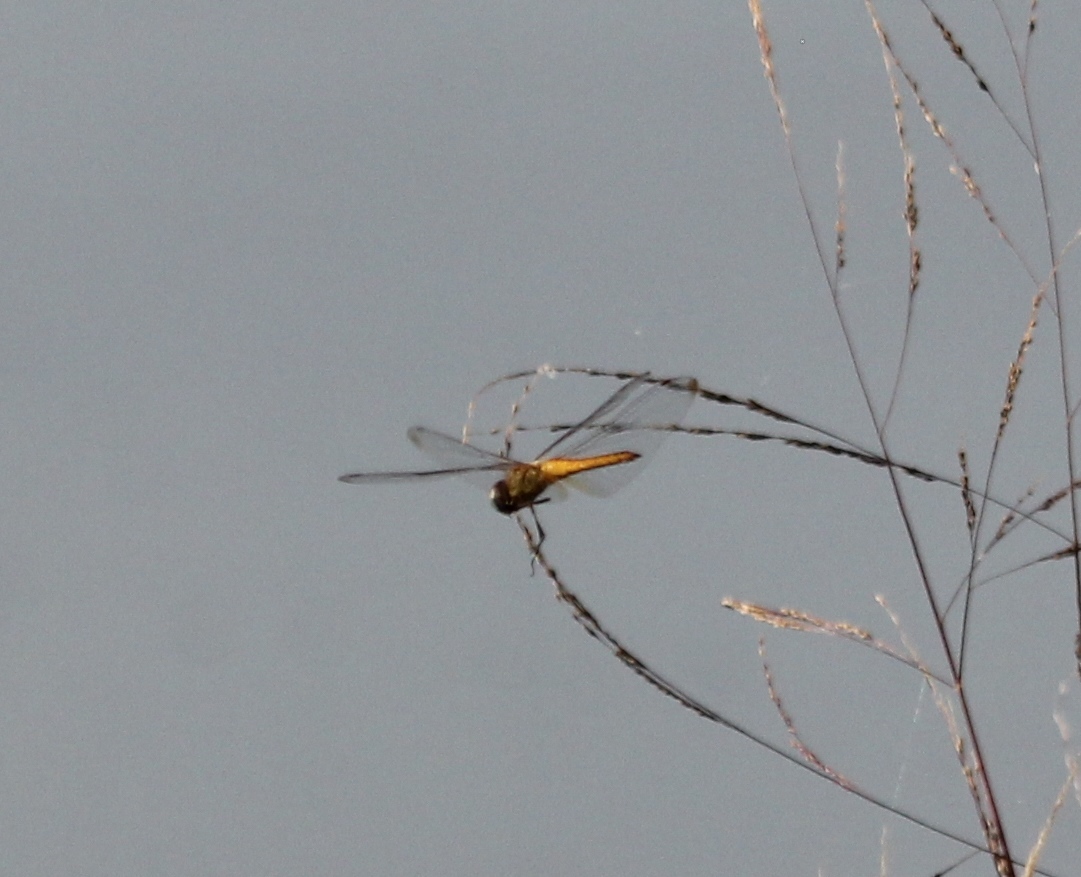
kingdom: Animalia
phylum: Arthropoda
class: Insecta
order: Odonata
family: Libellulidae
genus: Pantala
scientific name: Pantala flavescens
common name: Wandering glider
